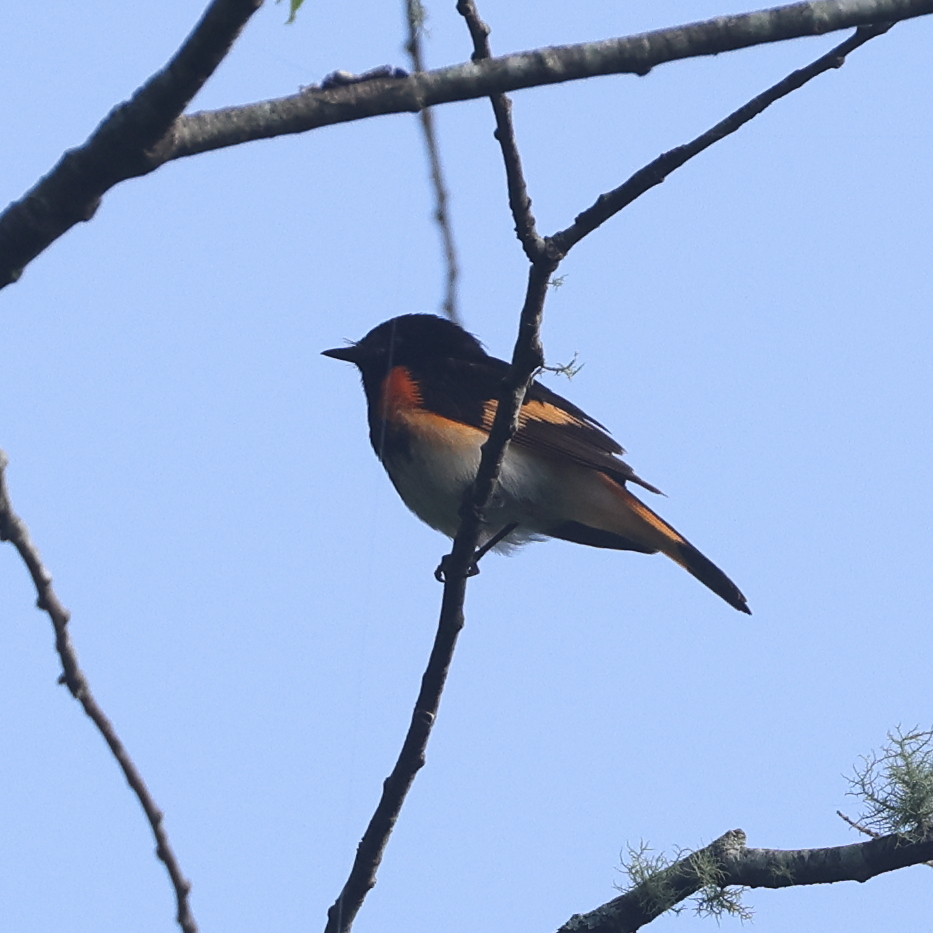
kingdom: Animalia
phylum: Chordata
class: Aves
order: Passeriformes
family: Parulidae
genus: Setophaga
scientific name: Setophaga ruticilla
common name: American redstart
